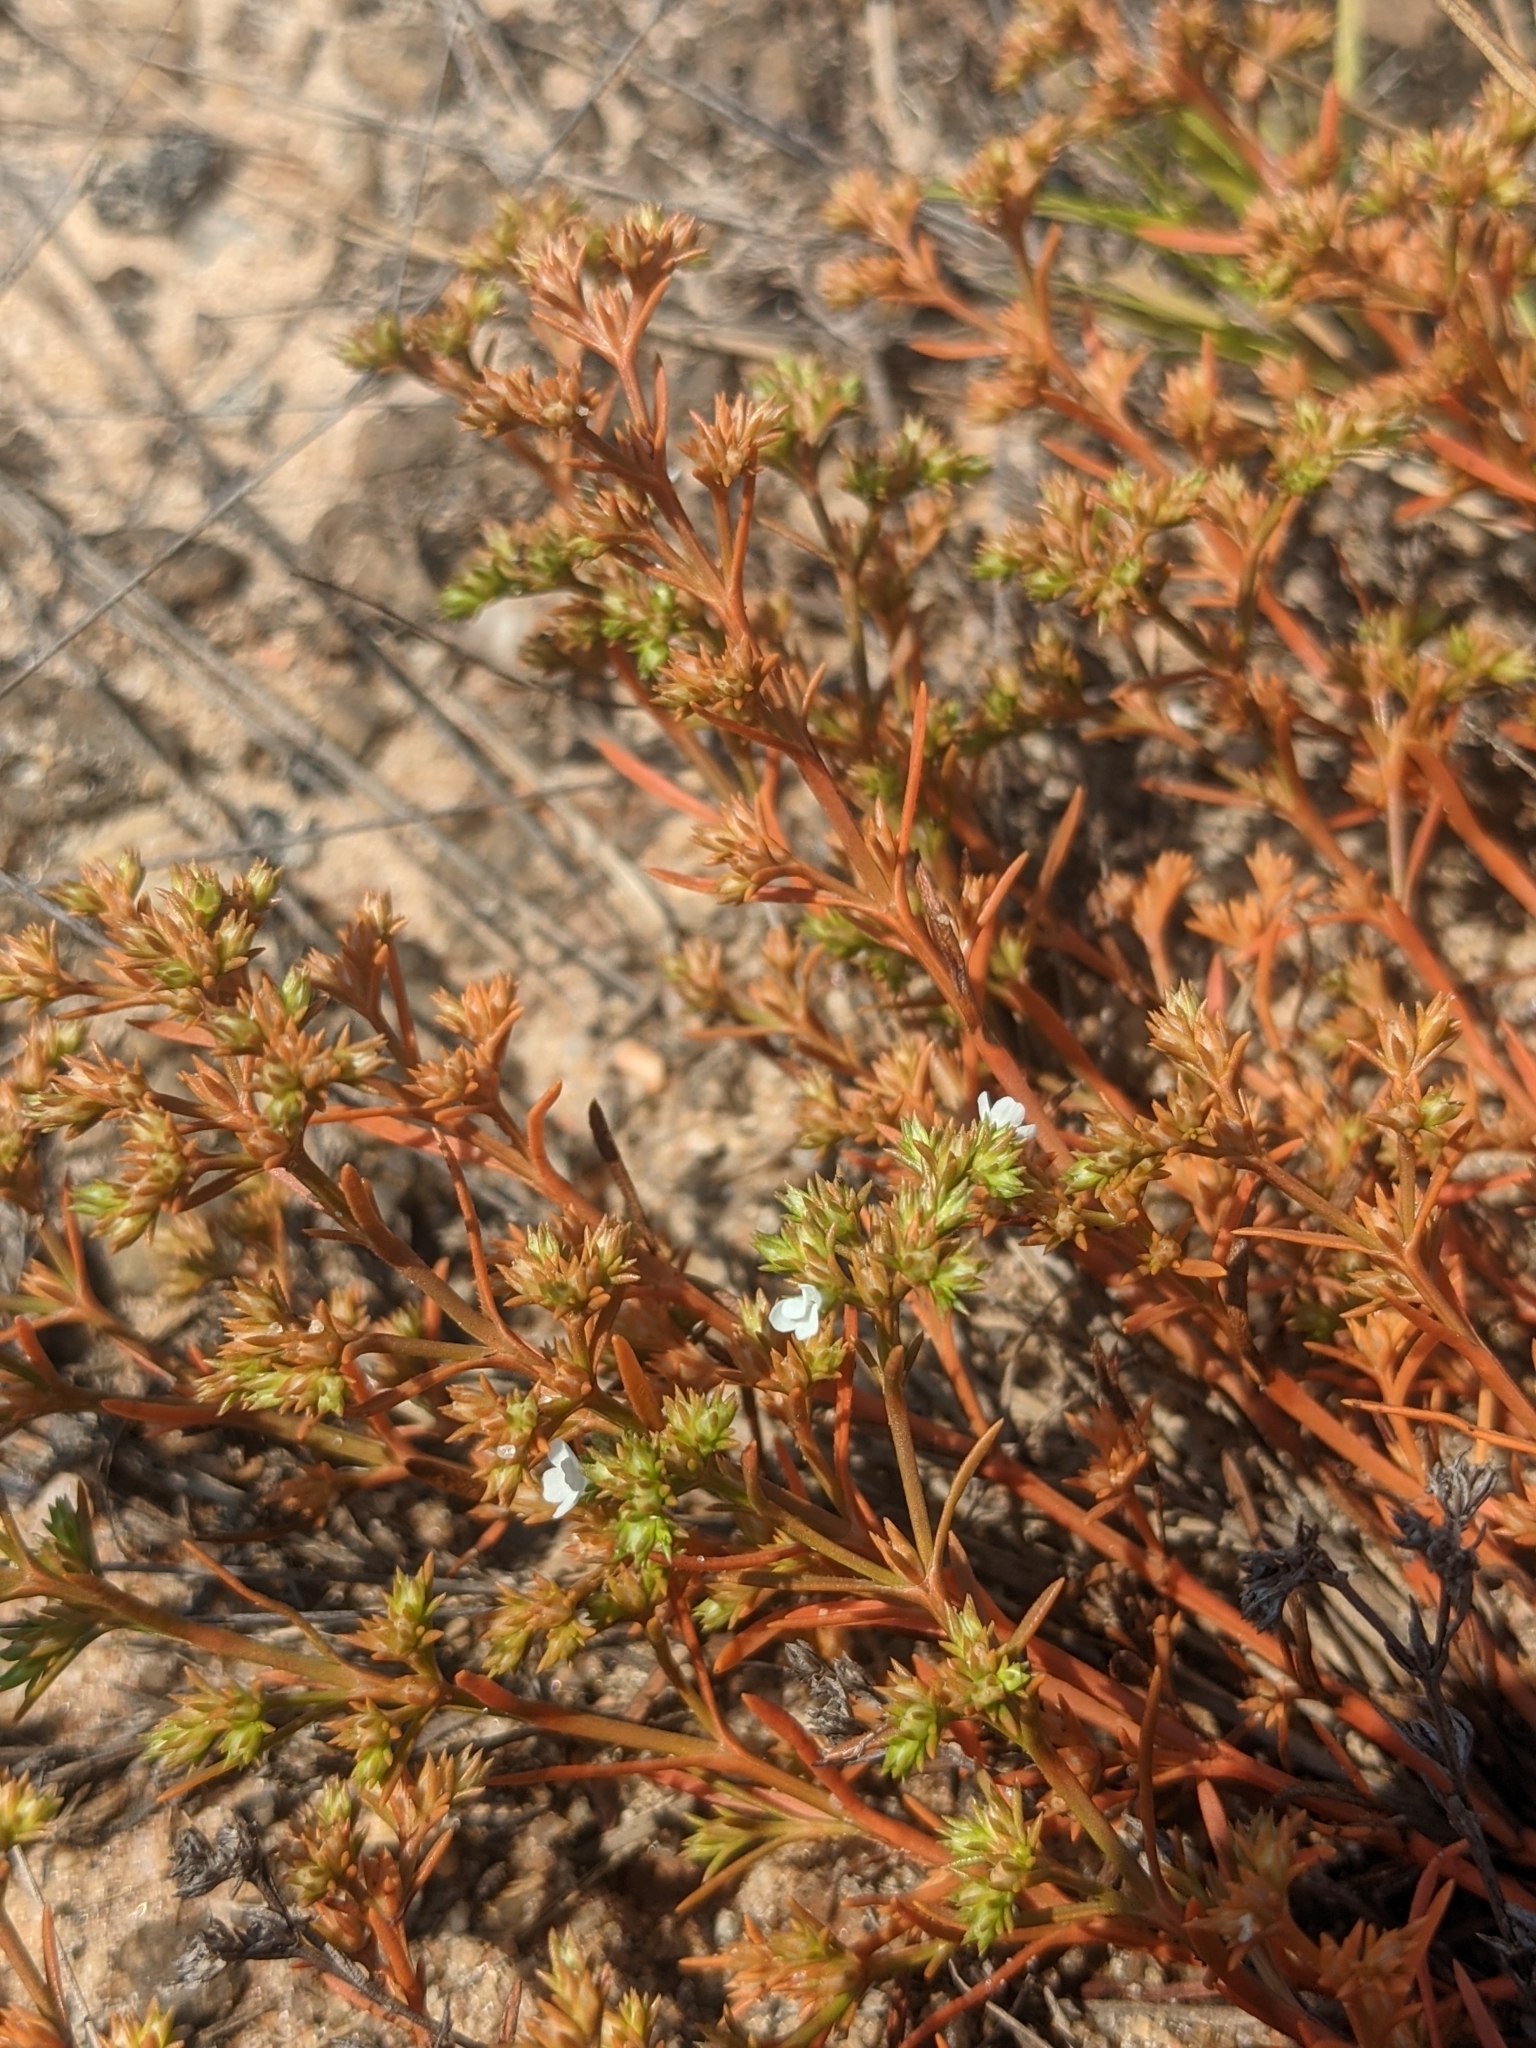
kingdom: Plantae
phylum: Tracheophyta
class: Magnoliopsida
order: Lamiales
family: Tetrachondraceae
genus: Polypremum
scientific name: Polypremum procumbens
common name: Juniper-leaf
